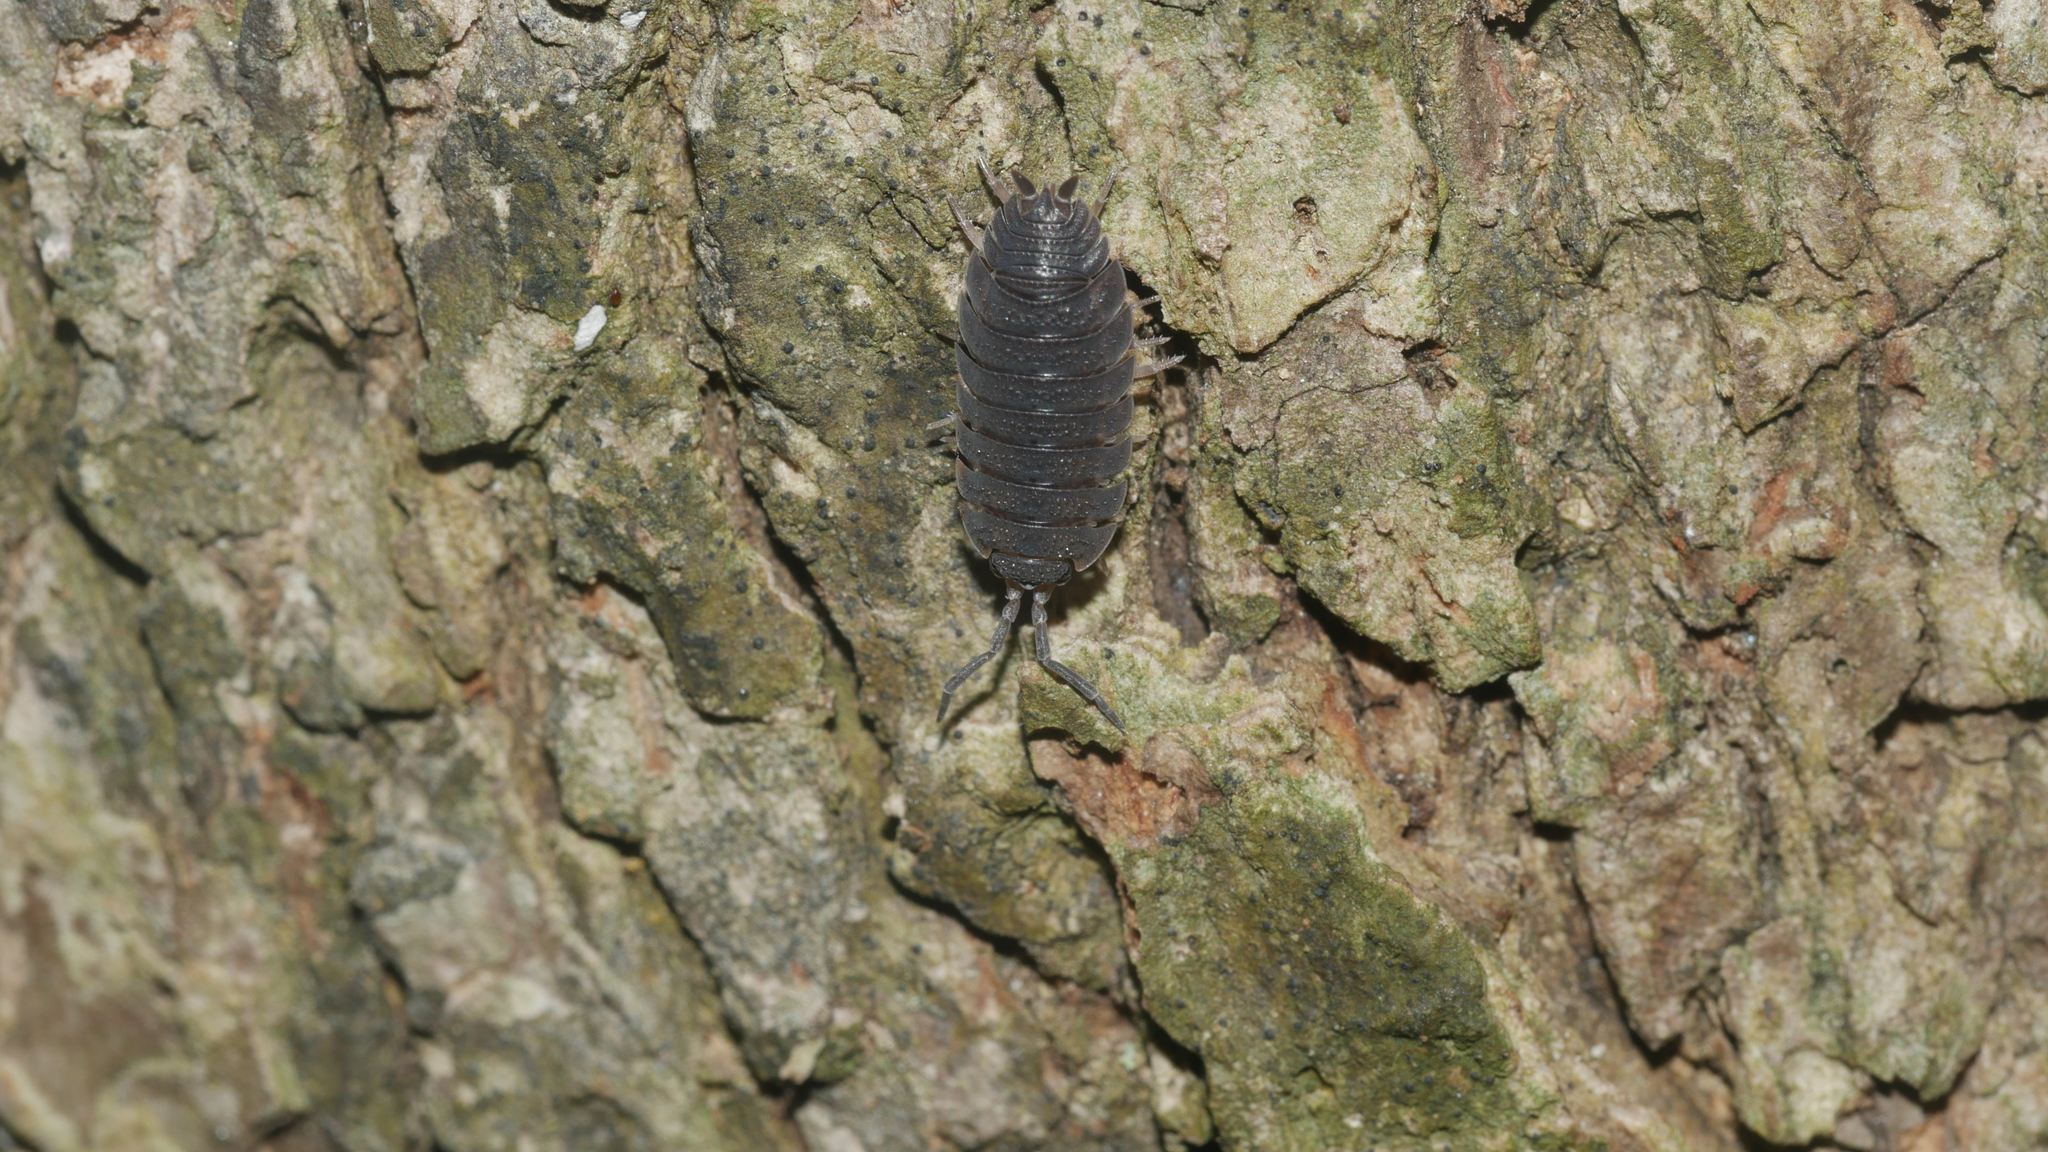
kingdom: Animalia
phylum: Arthropoda
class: Malacostraca
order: Isopoda
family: Porcellionidae
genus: Porcellio
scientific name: Porcellio scaber
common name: Common rough woodlouse
